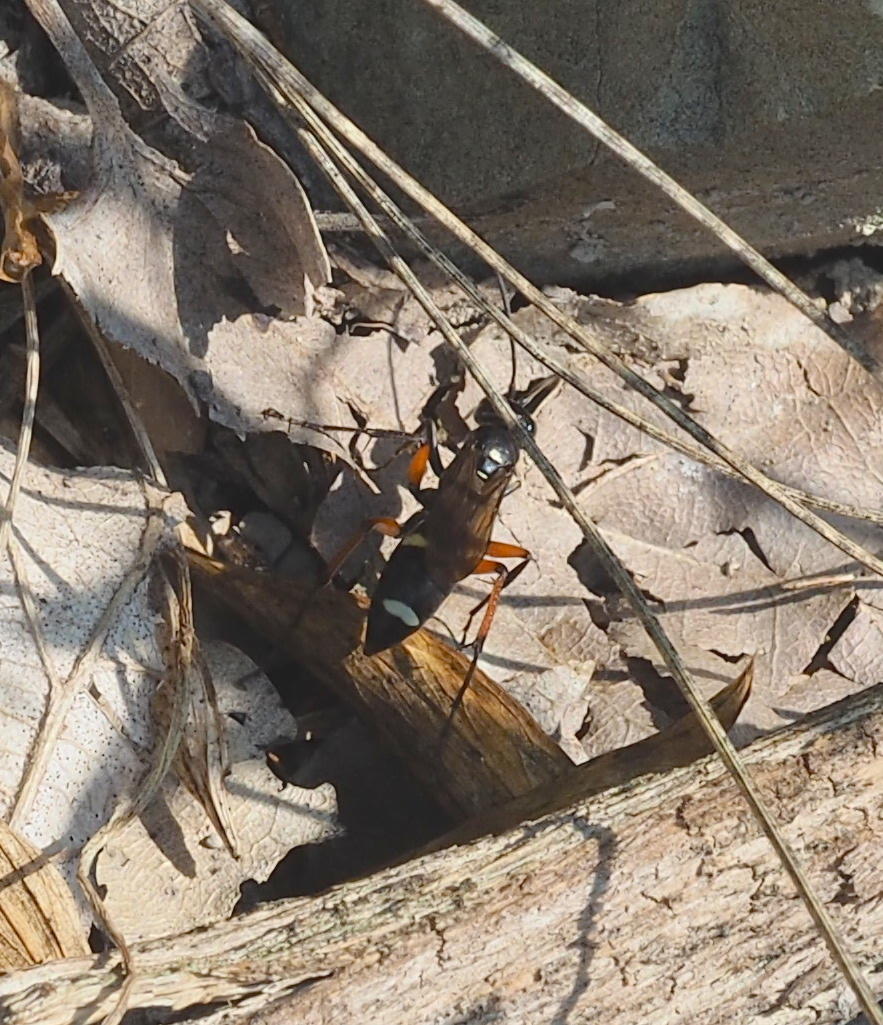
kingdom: Animalia
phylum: Arthropoda
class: Insecta
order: Hymenoptera
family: Pompilidae
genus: Cryptocheilus
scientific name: Cryptocheilus versicolor
